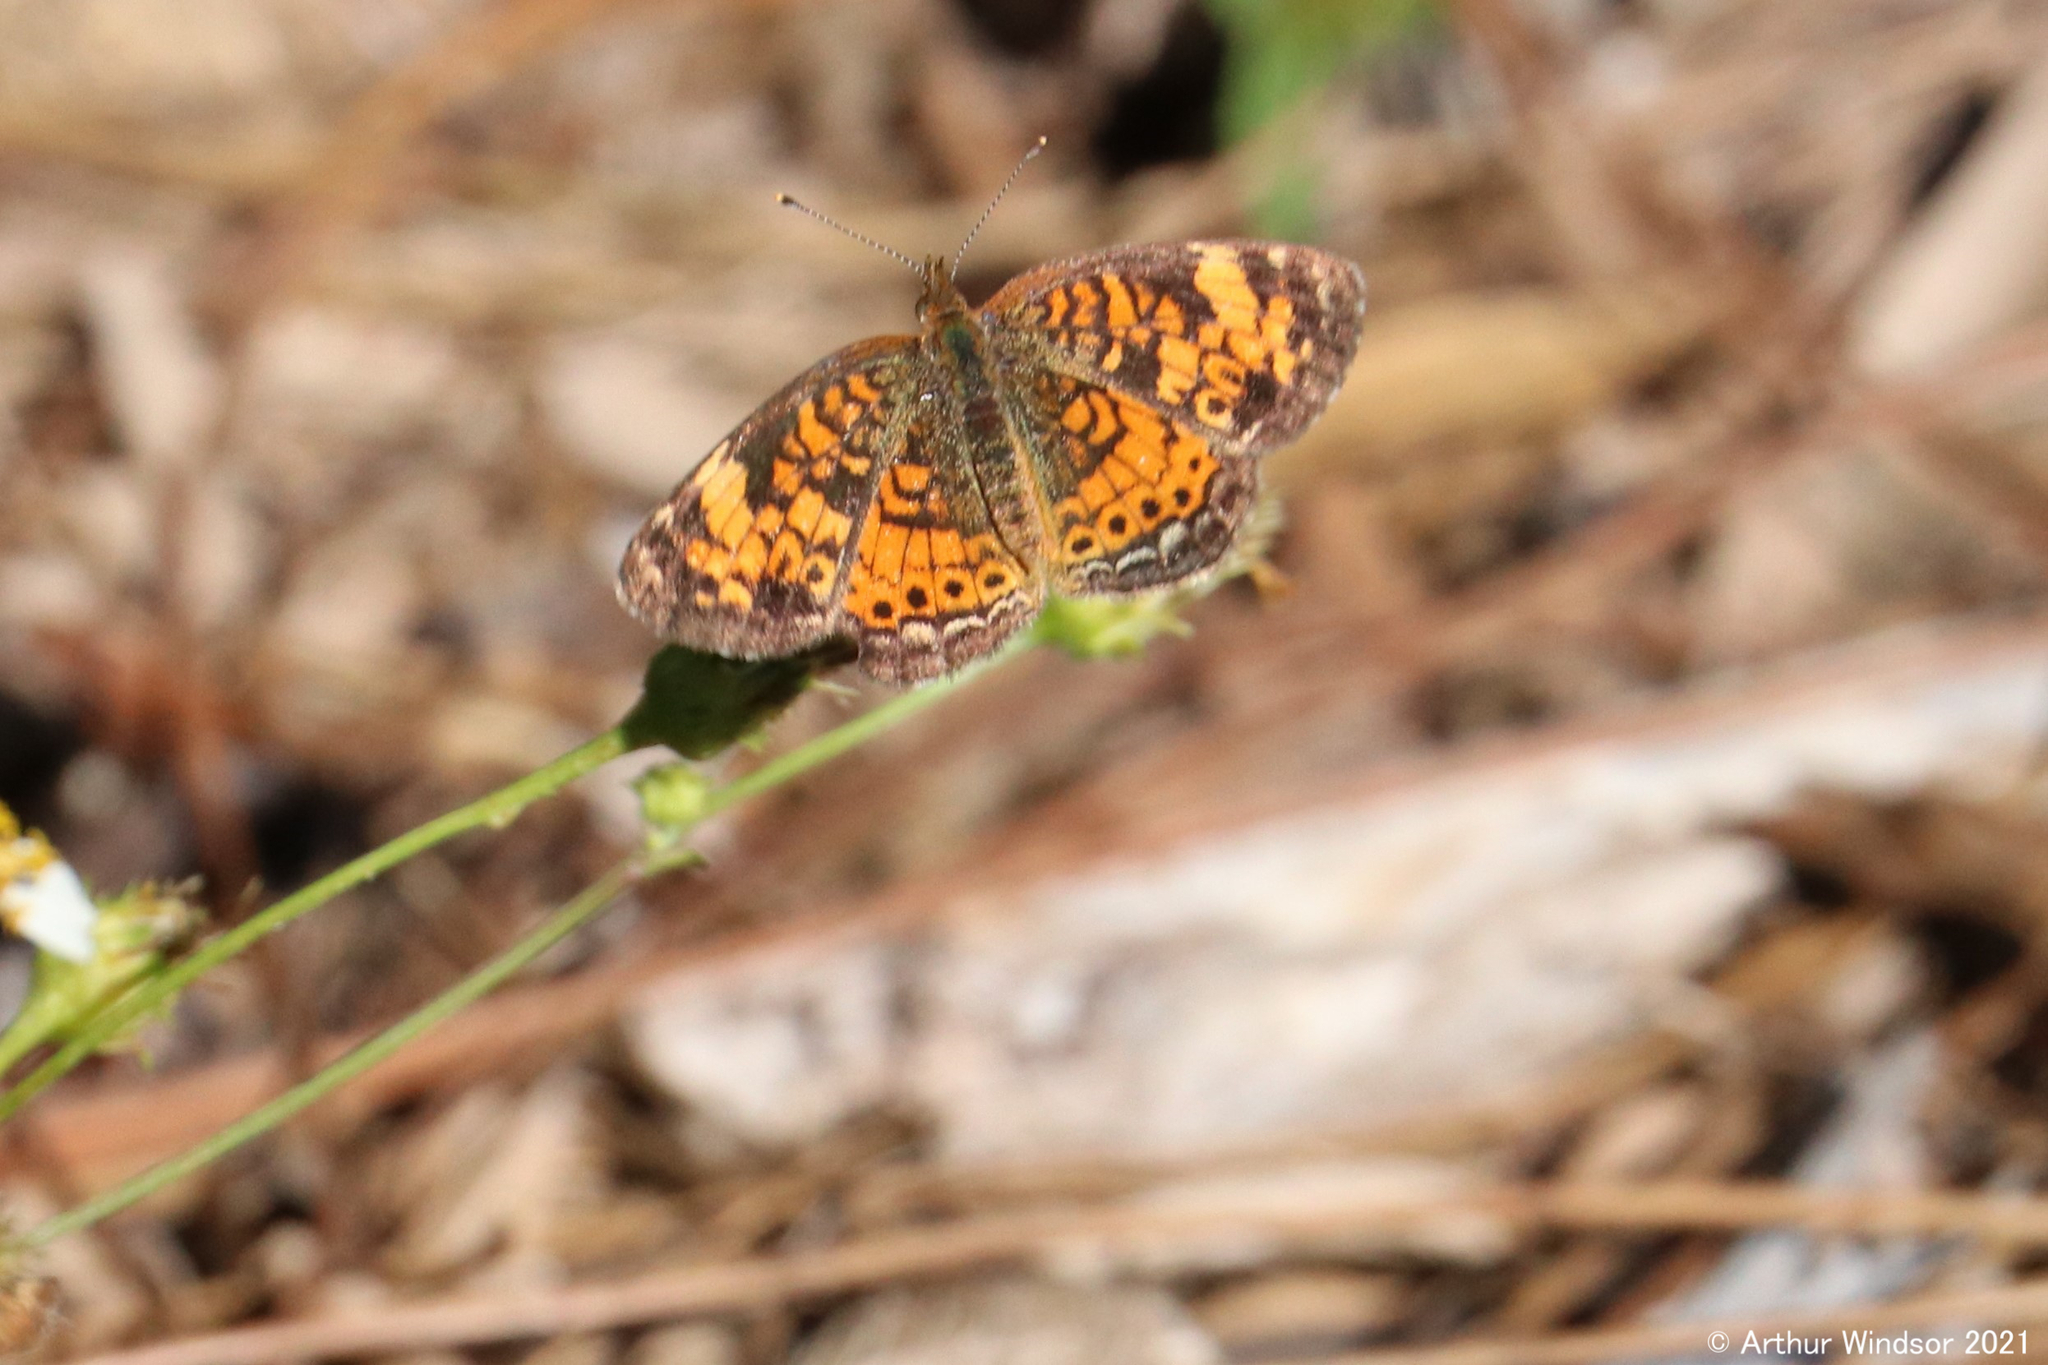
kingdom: Animalia
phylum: Arthropoda
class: Insecta
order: Lepidoptera
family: Nymphalidae
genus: Phyciodes
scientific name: Phyciodes tharos
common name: Pearl crescent
